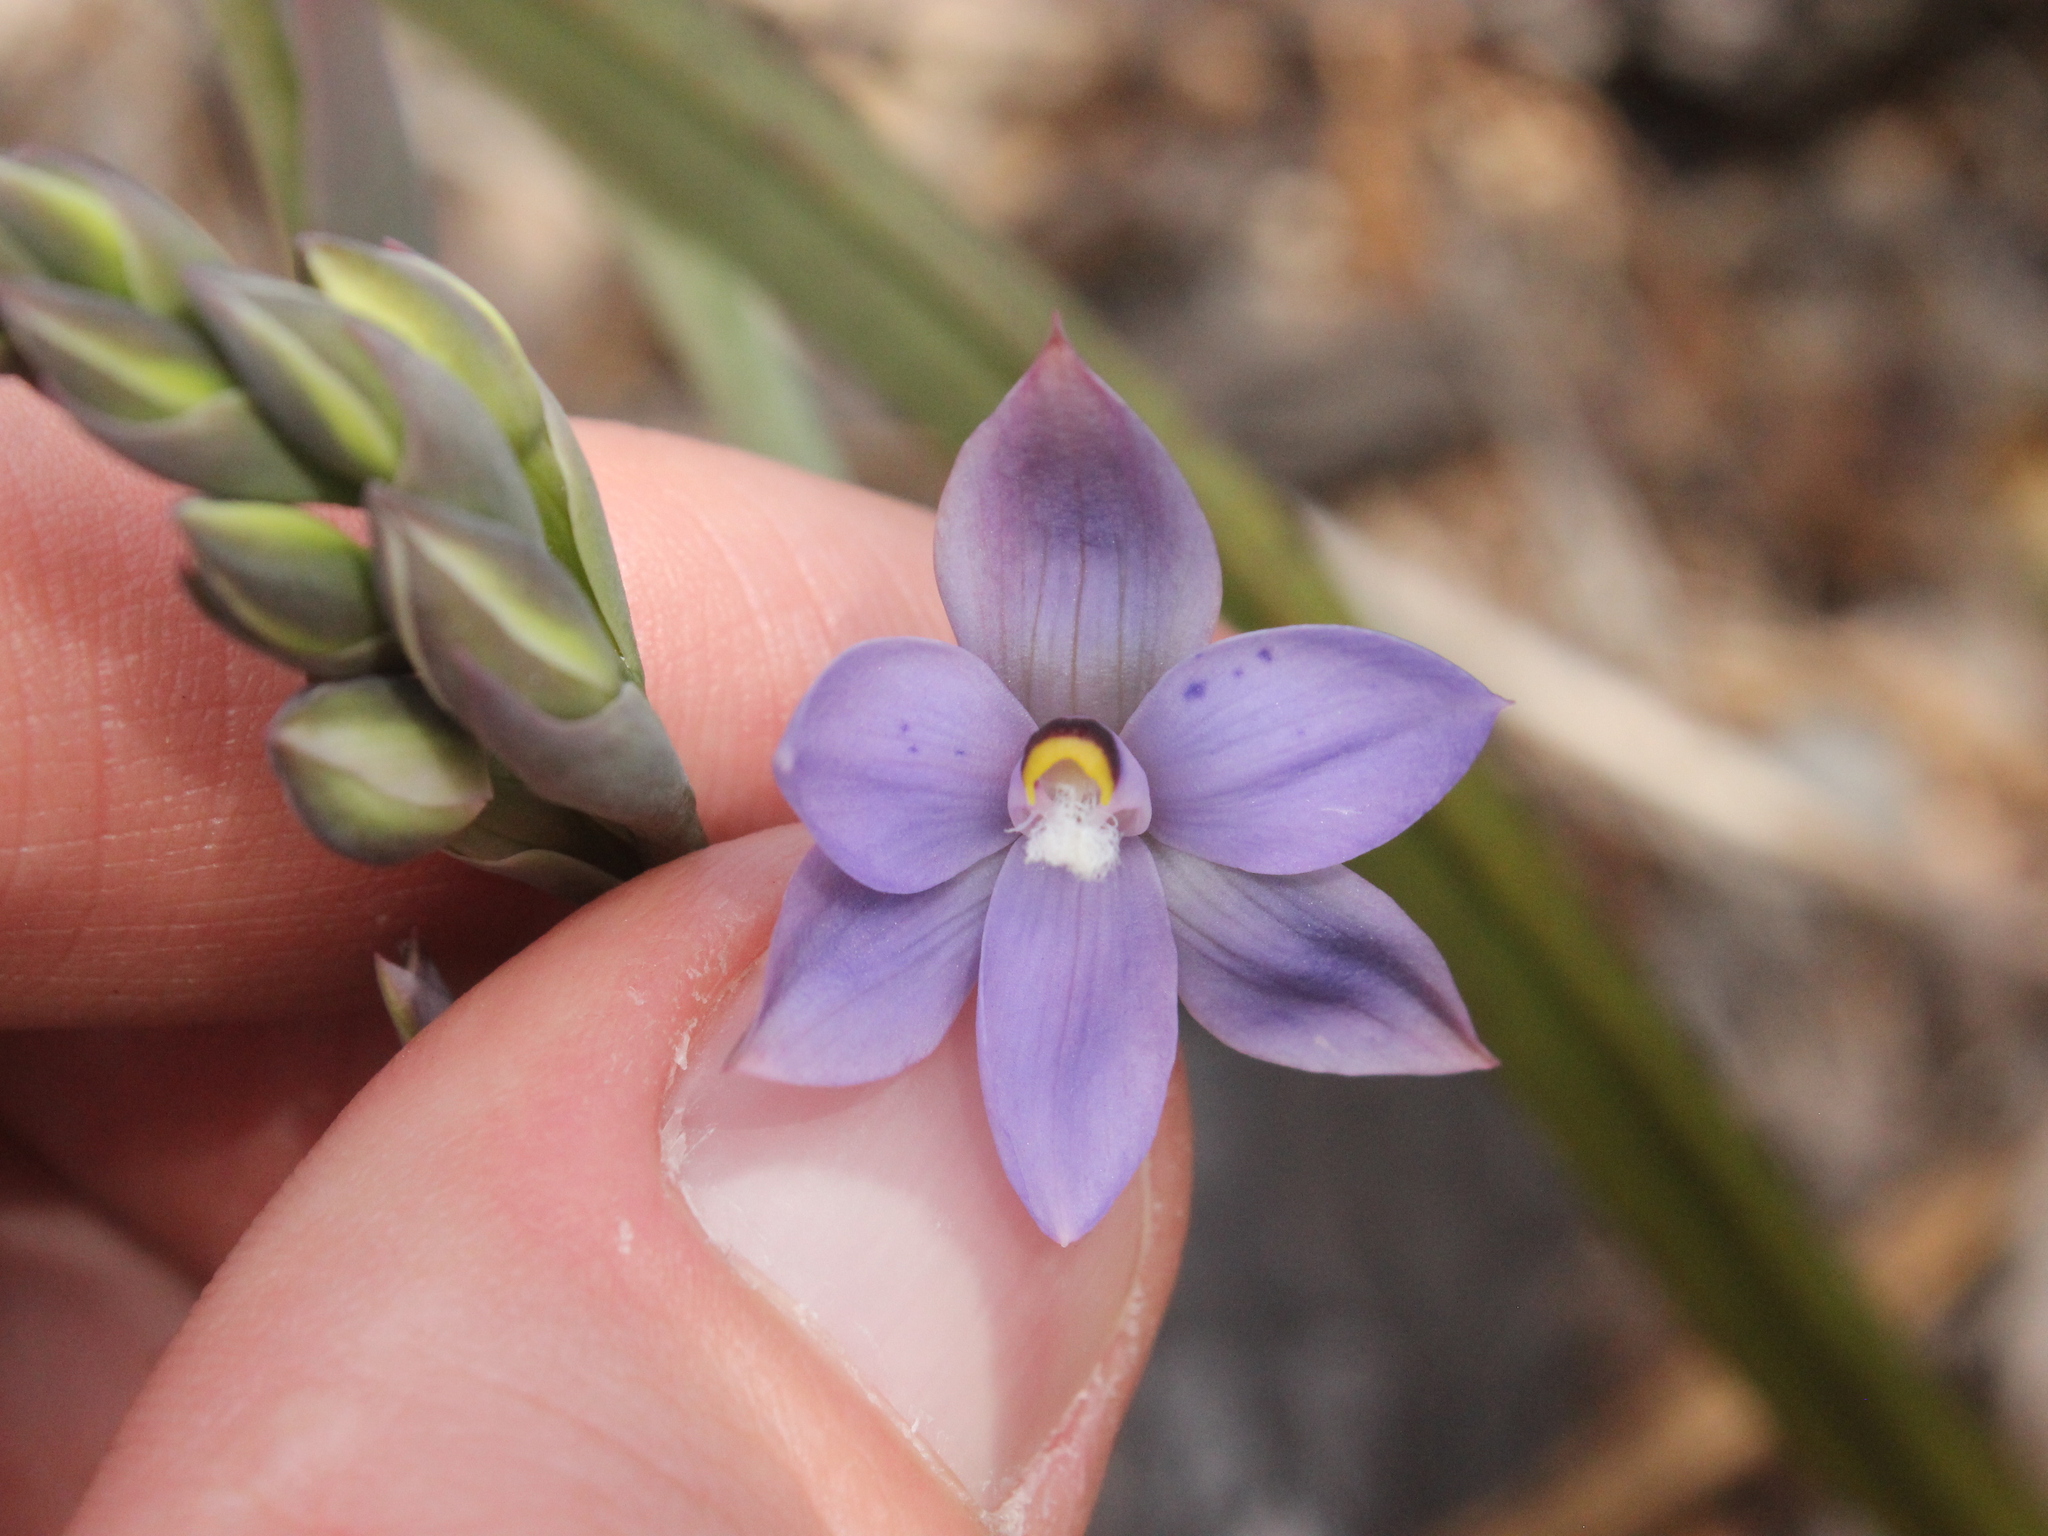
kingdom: Plantae
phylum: Tracheophyta
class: Liliopsida
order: Asparagales
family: Orchidaceae
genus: Thelymitra
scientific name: Thelymitra nervosa
